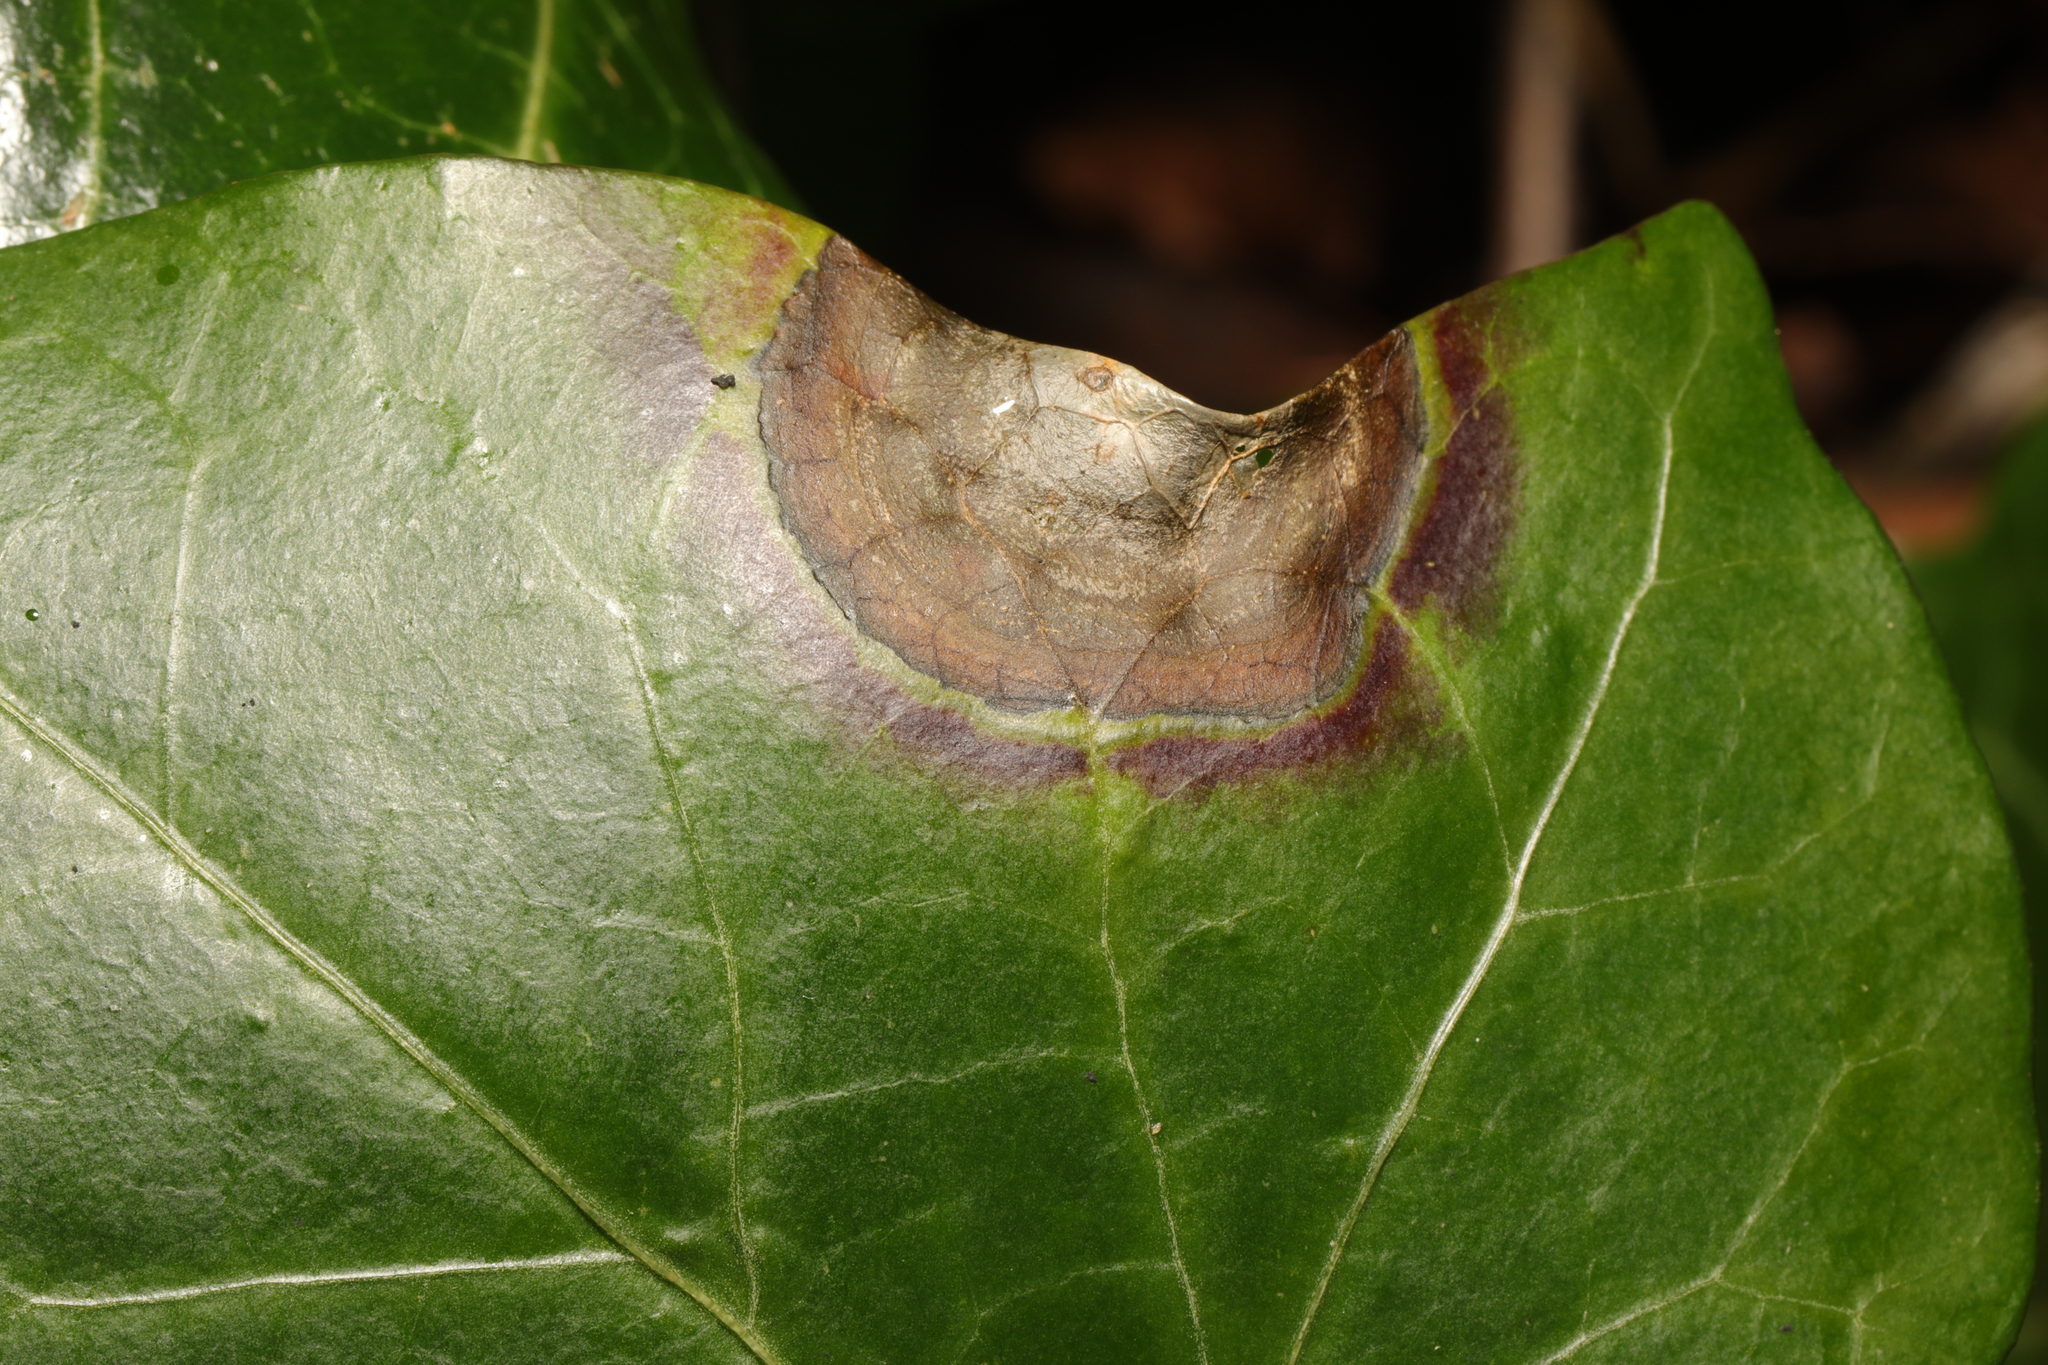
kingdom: Fungi
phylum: Ascomycota
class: Dothideomycetes
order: Pleosporales
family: Didymellaceae
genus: Boeremia
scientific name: Boeremia hedericola
